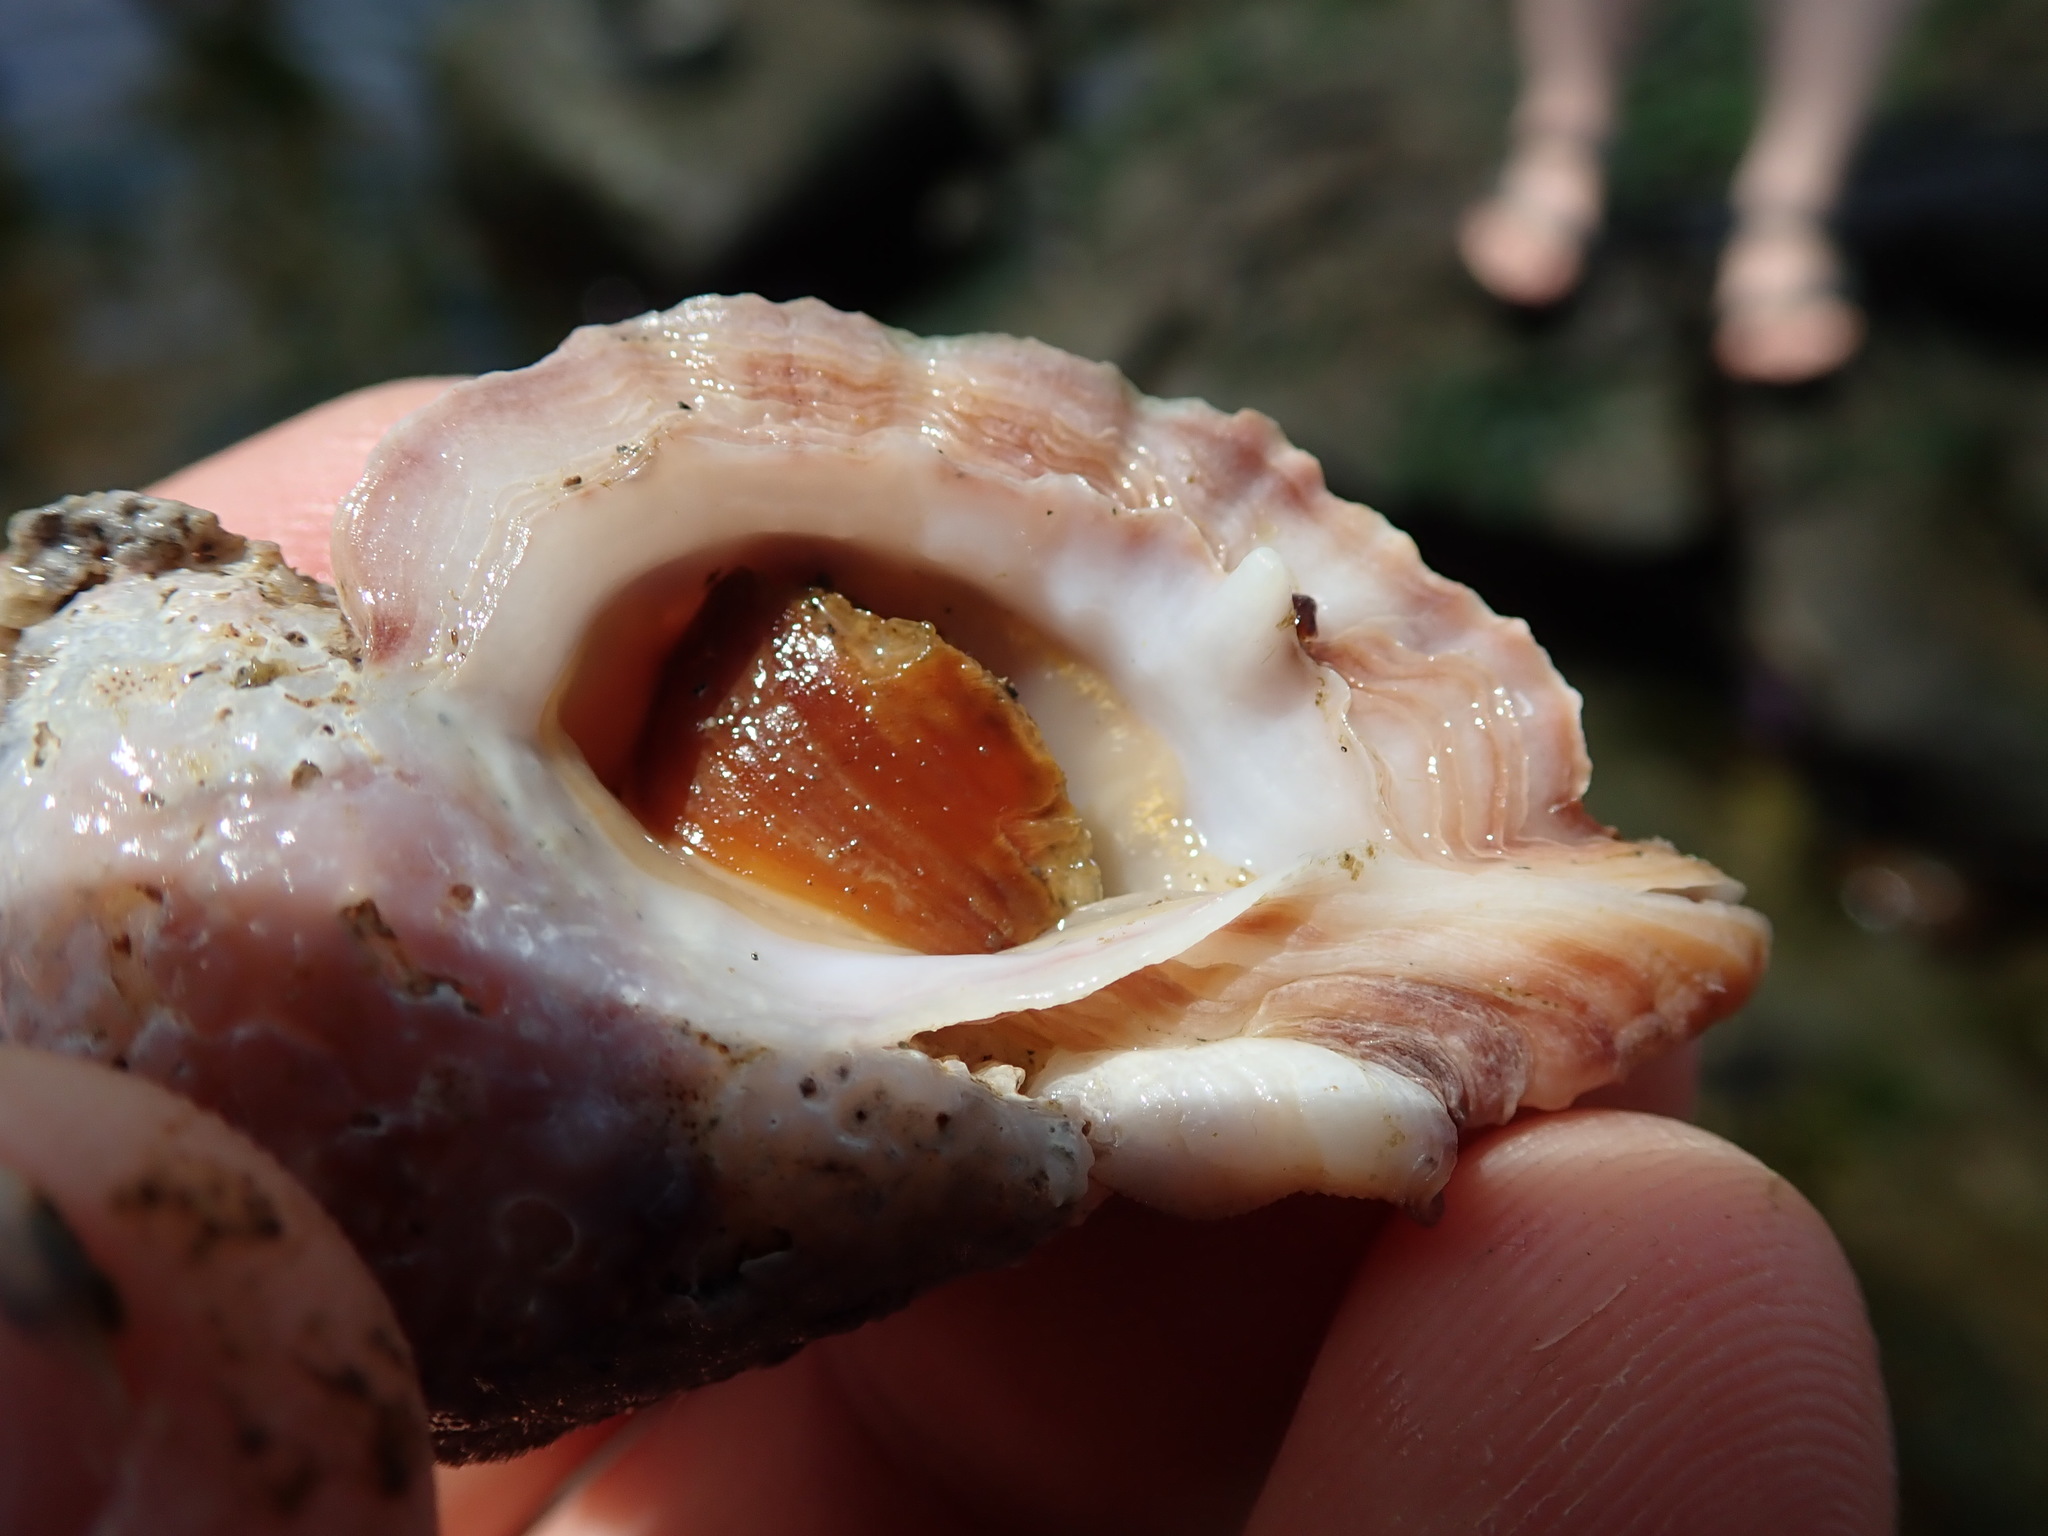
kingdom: Animalia
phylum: Mollusca
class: Gastropoda
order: Neogastropoda
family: Muricidae
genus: Ceratostoma
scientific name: Ceratostoma foliatum
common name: Foliate thorn purpura
